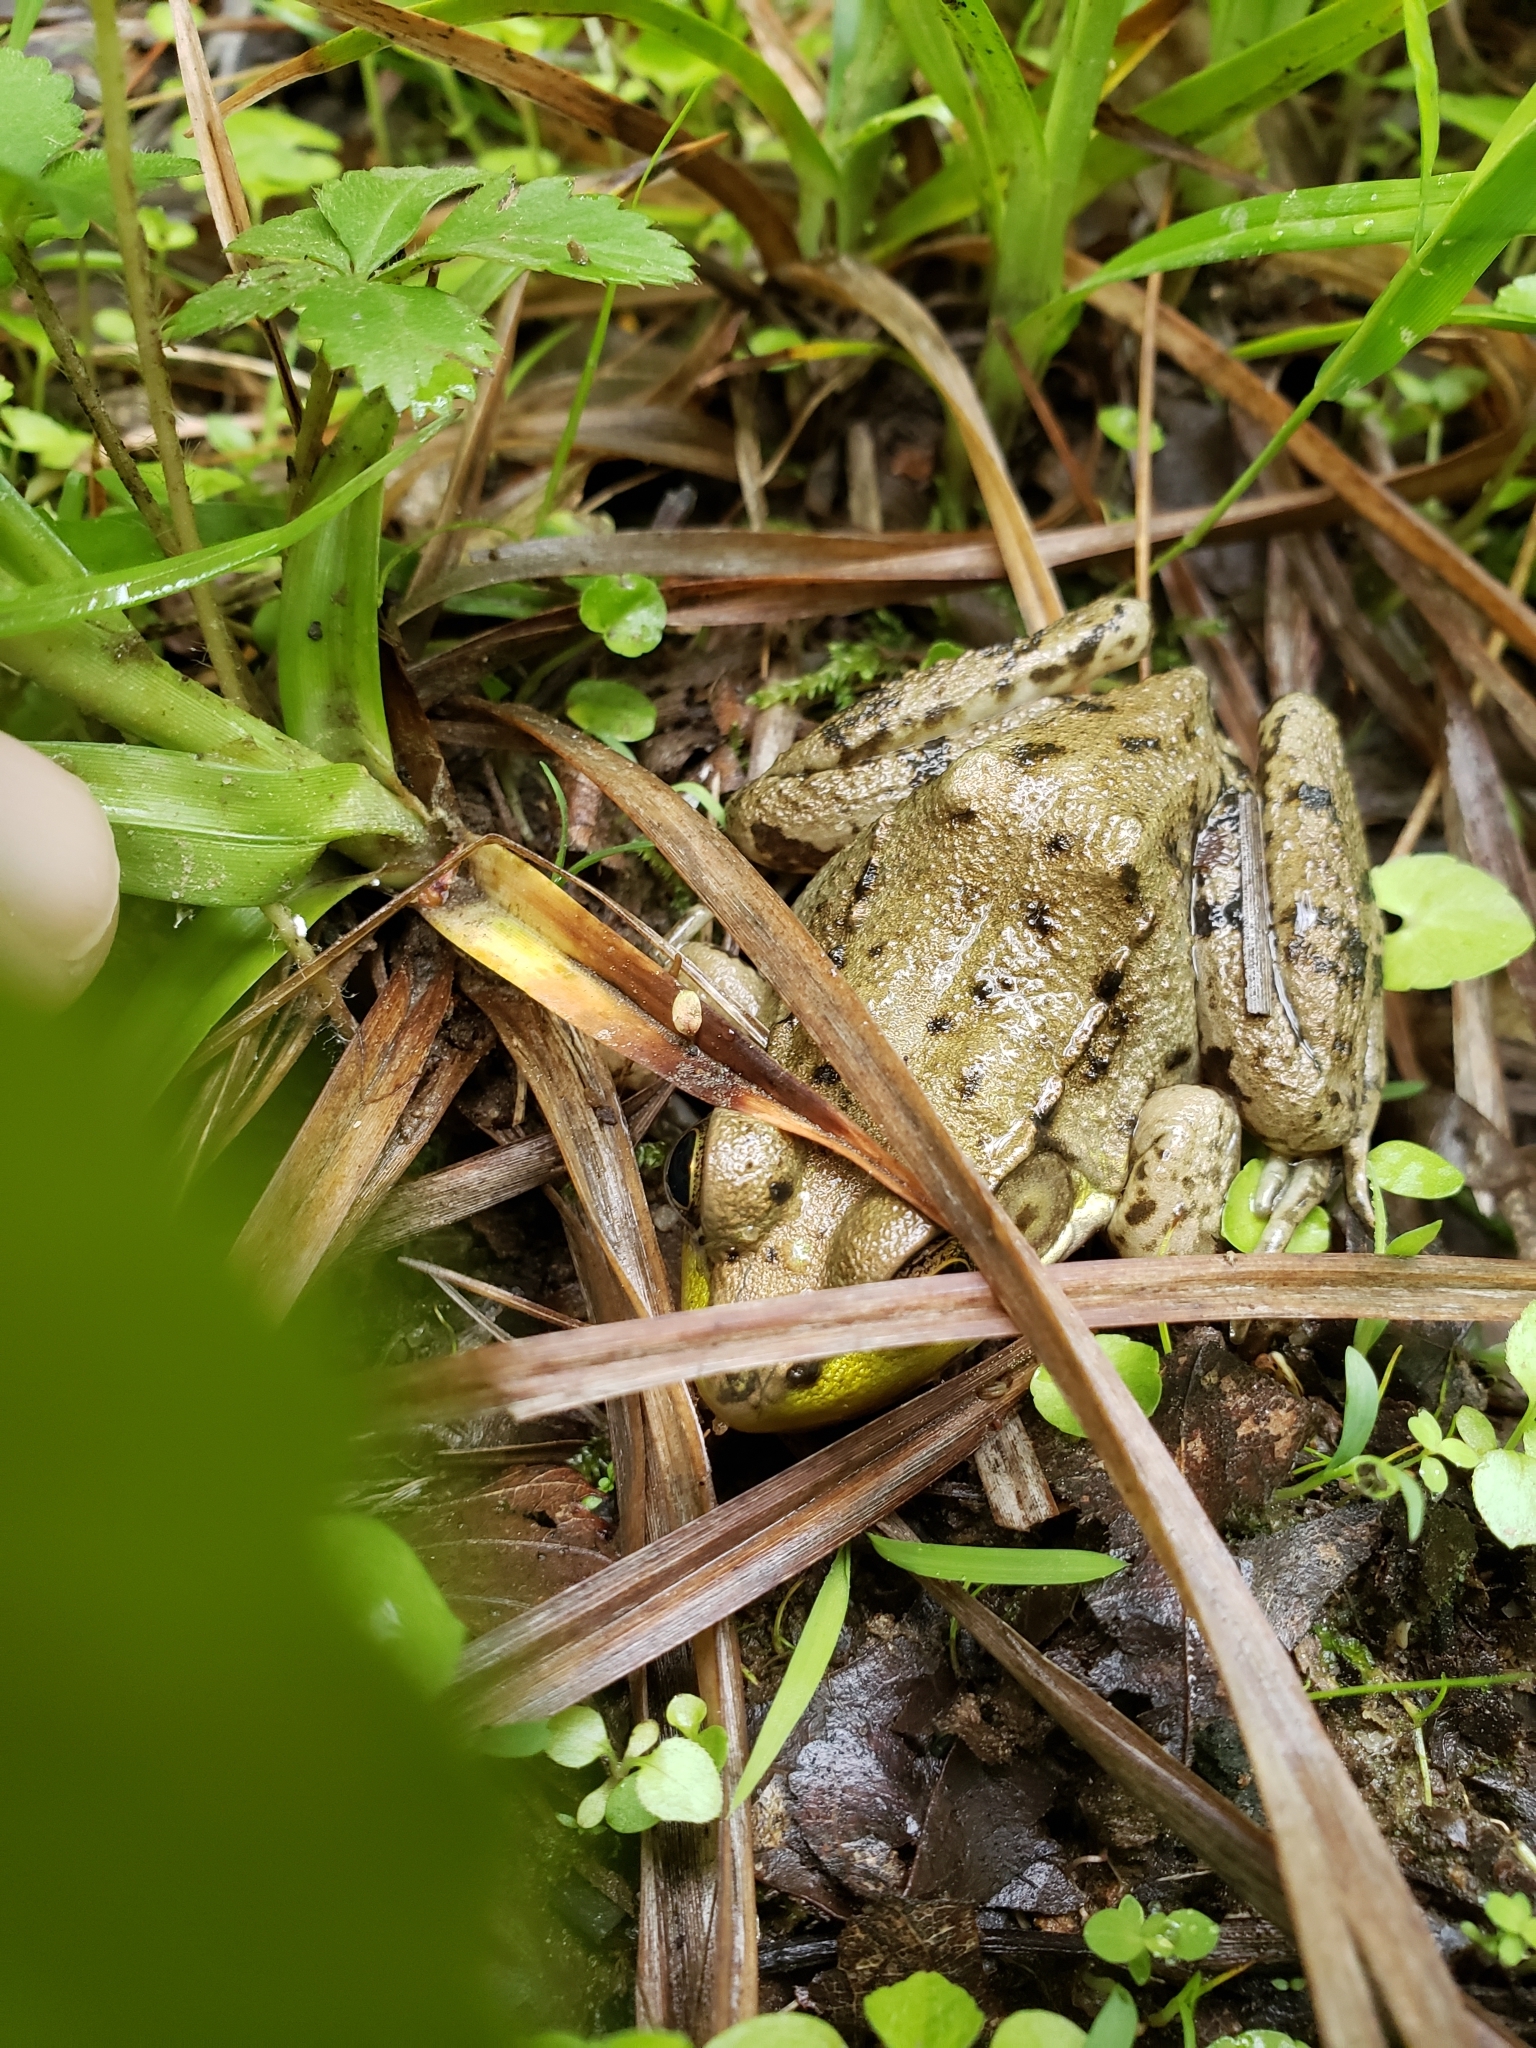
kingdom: Animalia
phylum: Chordata
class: Amphibia
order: Anura
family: Ranidae
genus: Lithobates
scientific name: Lithobates clamitans
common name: Green frog
